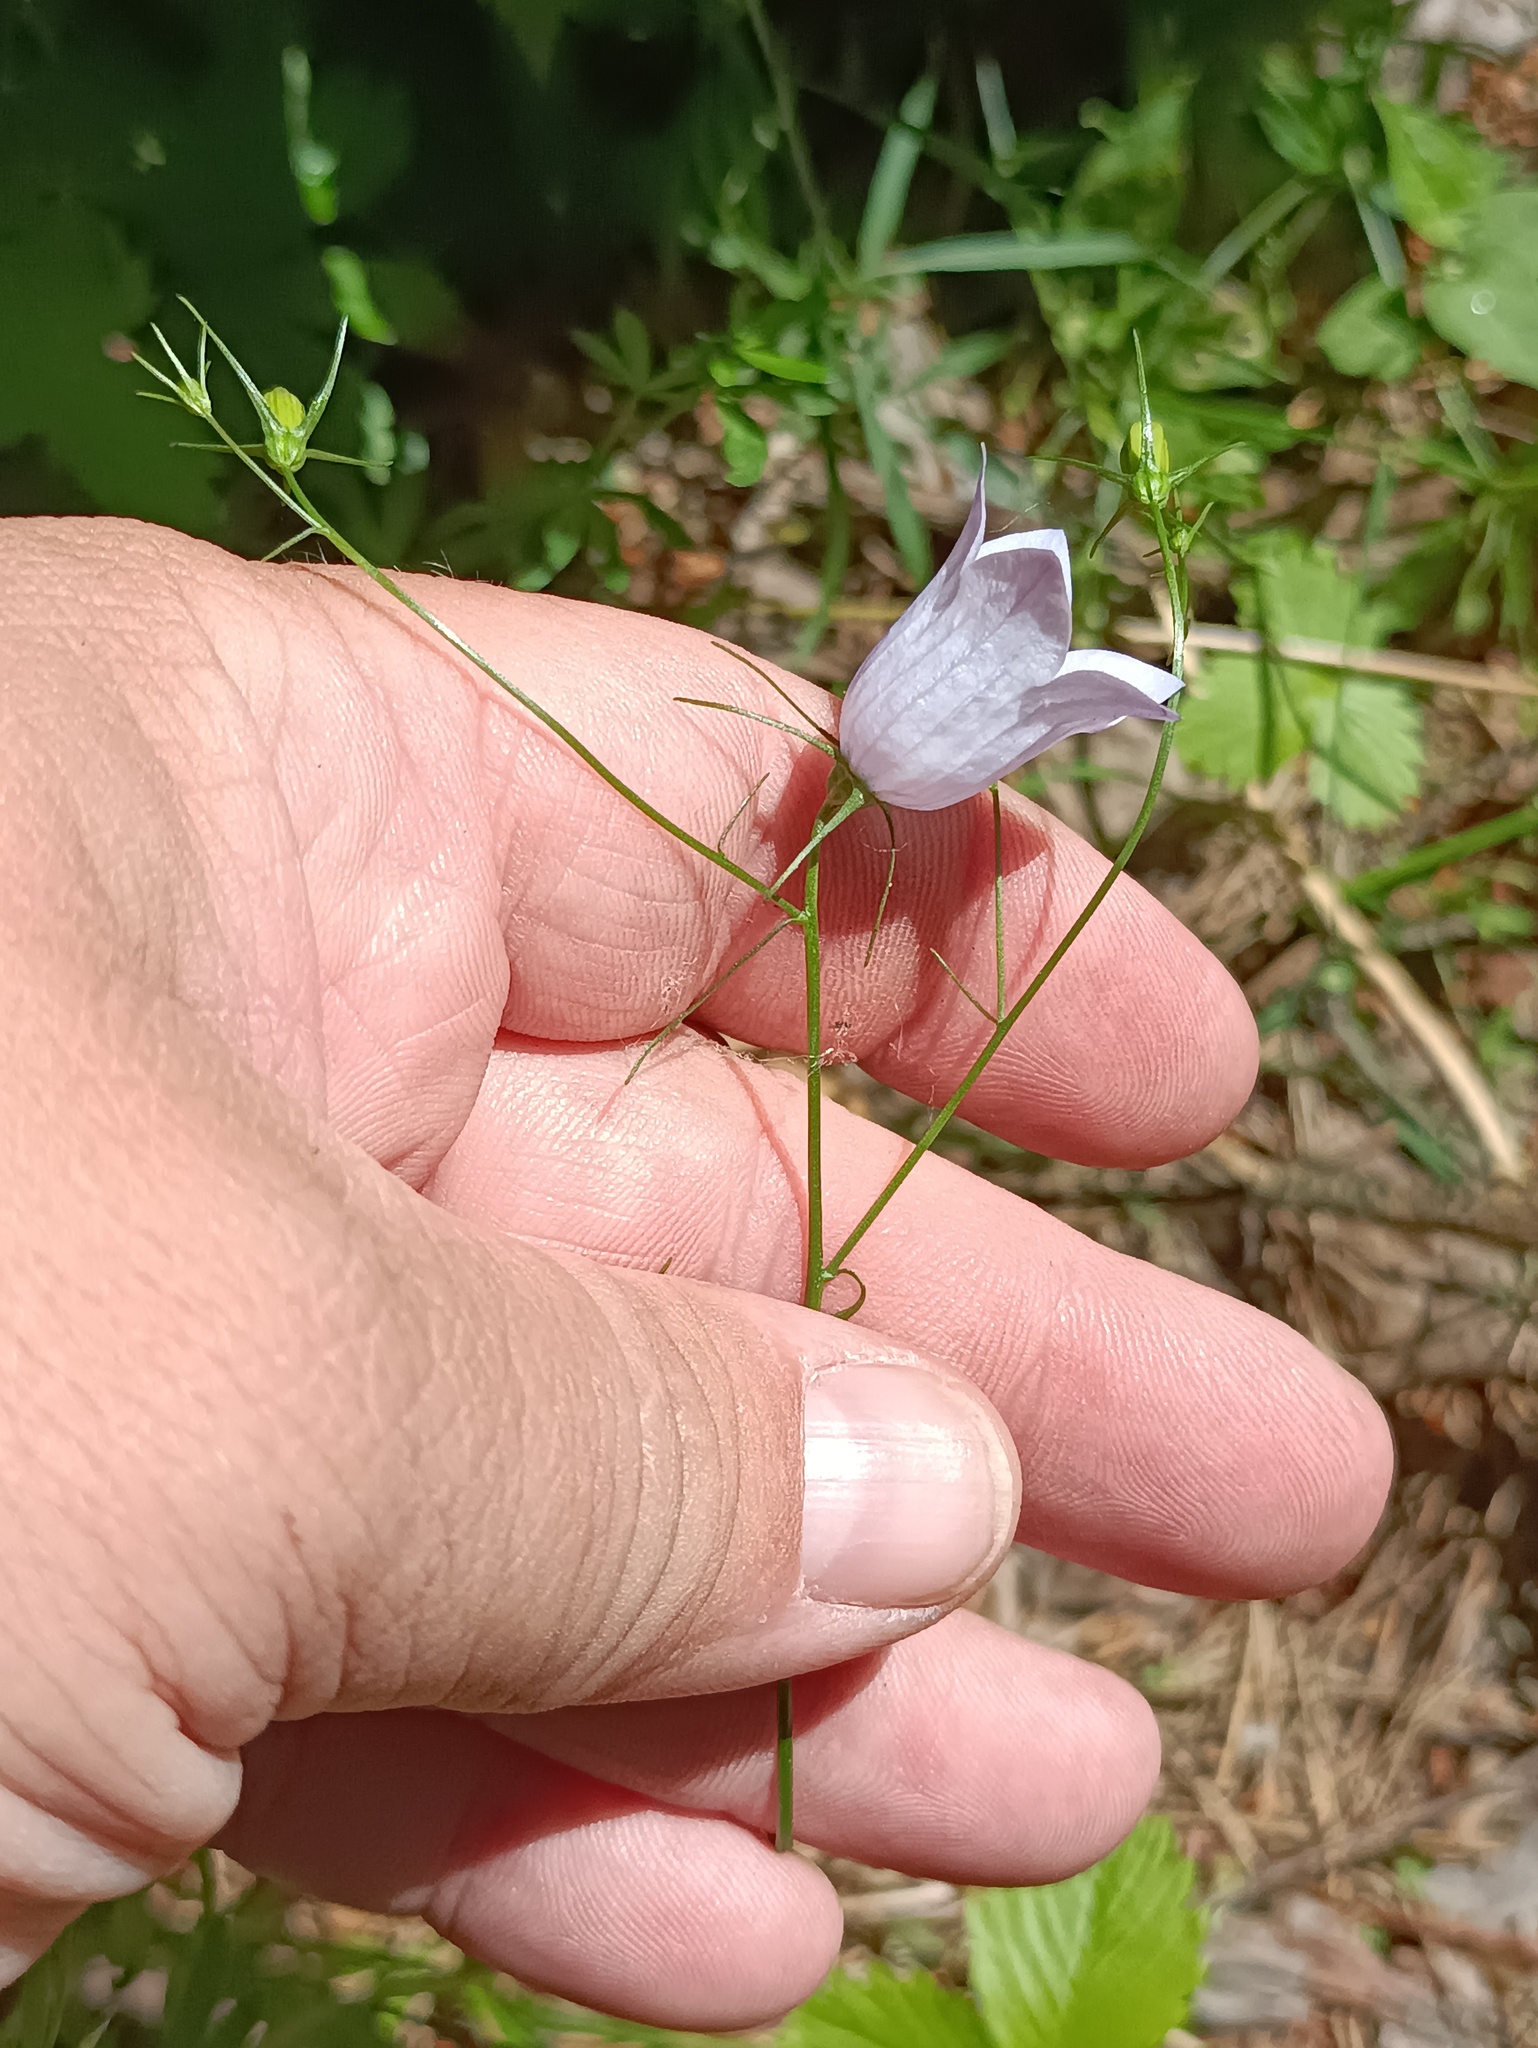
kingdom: Plantae
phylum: Tracheophyta
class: Magnoliopsida
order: Asterales
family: Campanulaceae
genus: Campanula
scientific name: Campanula rotundifolia
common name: Harebell
